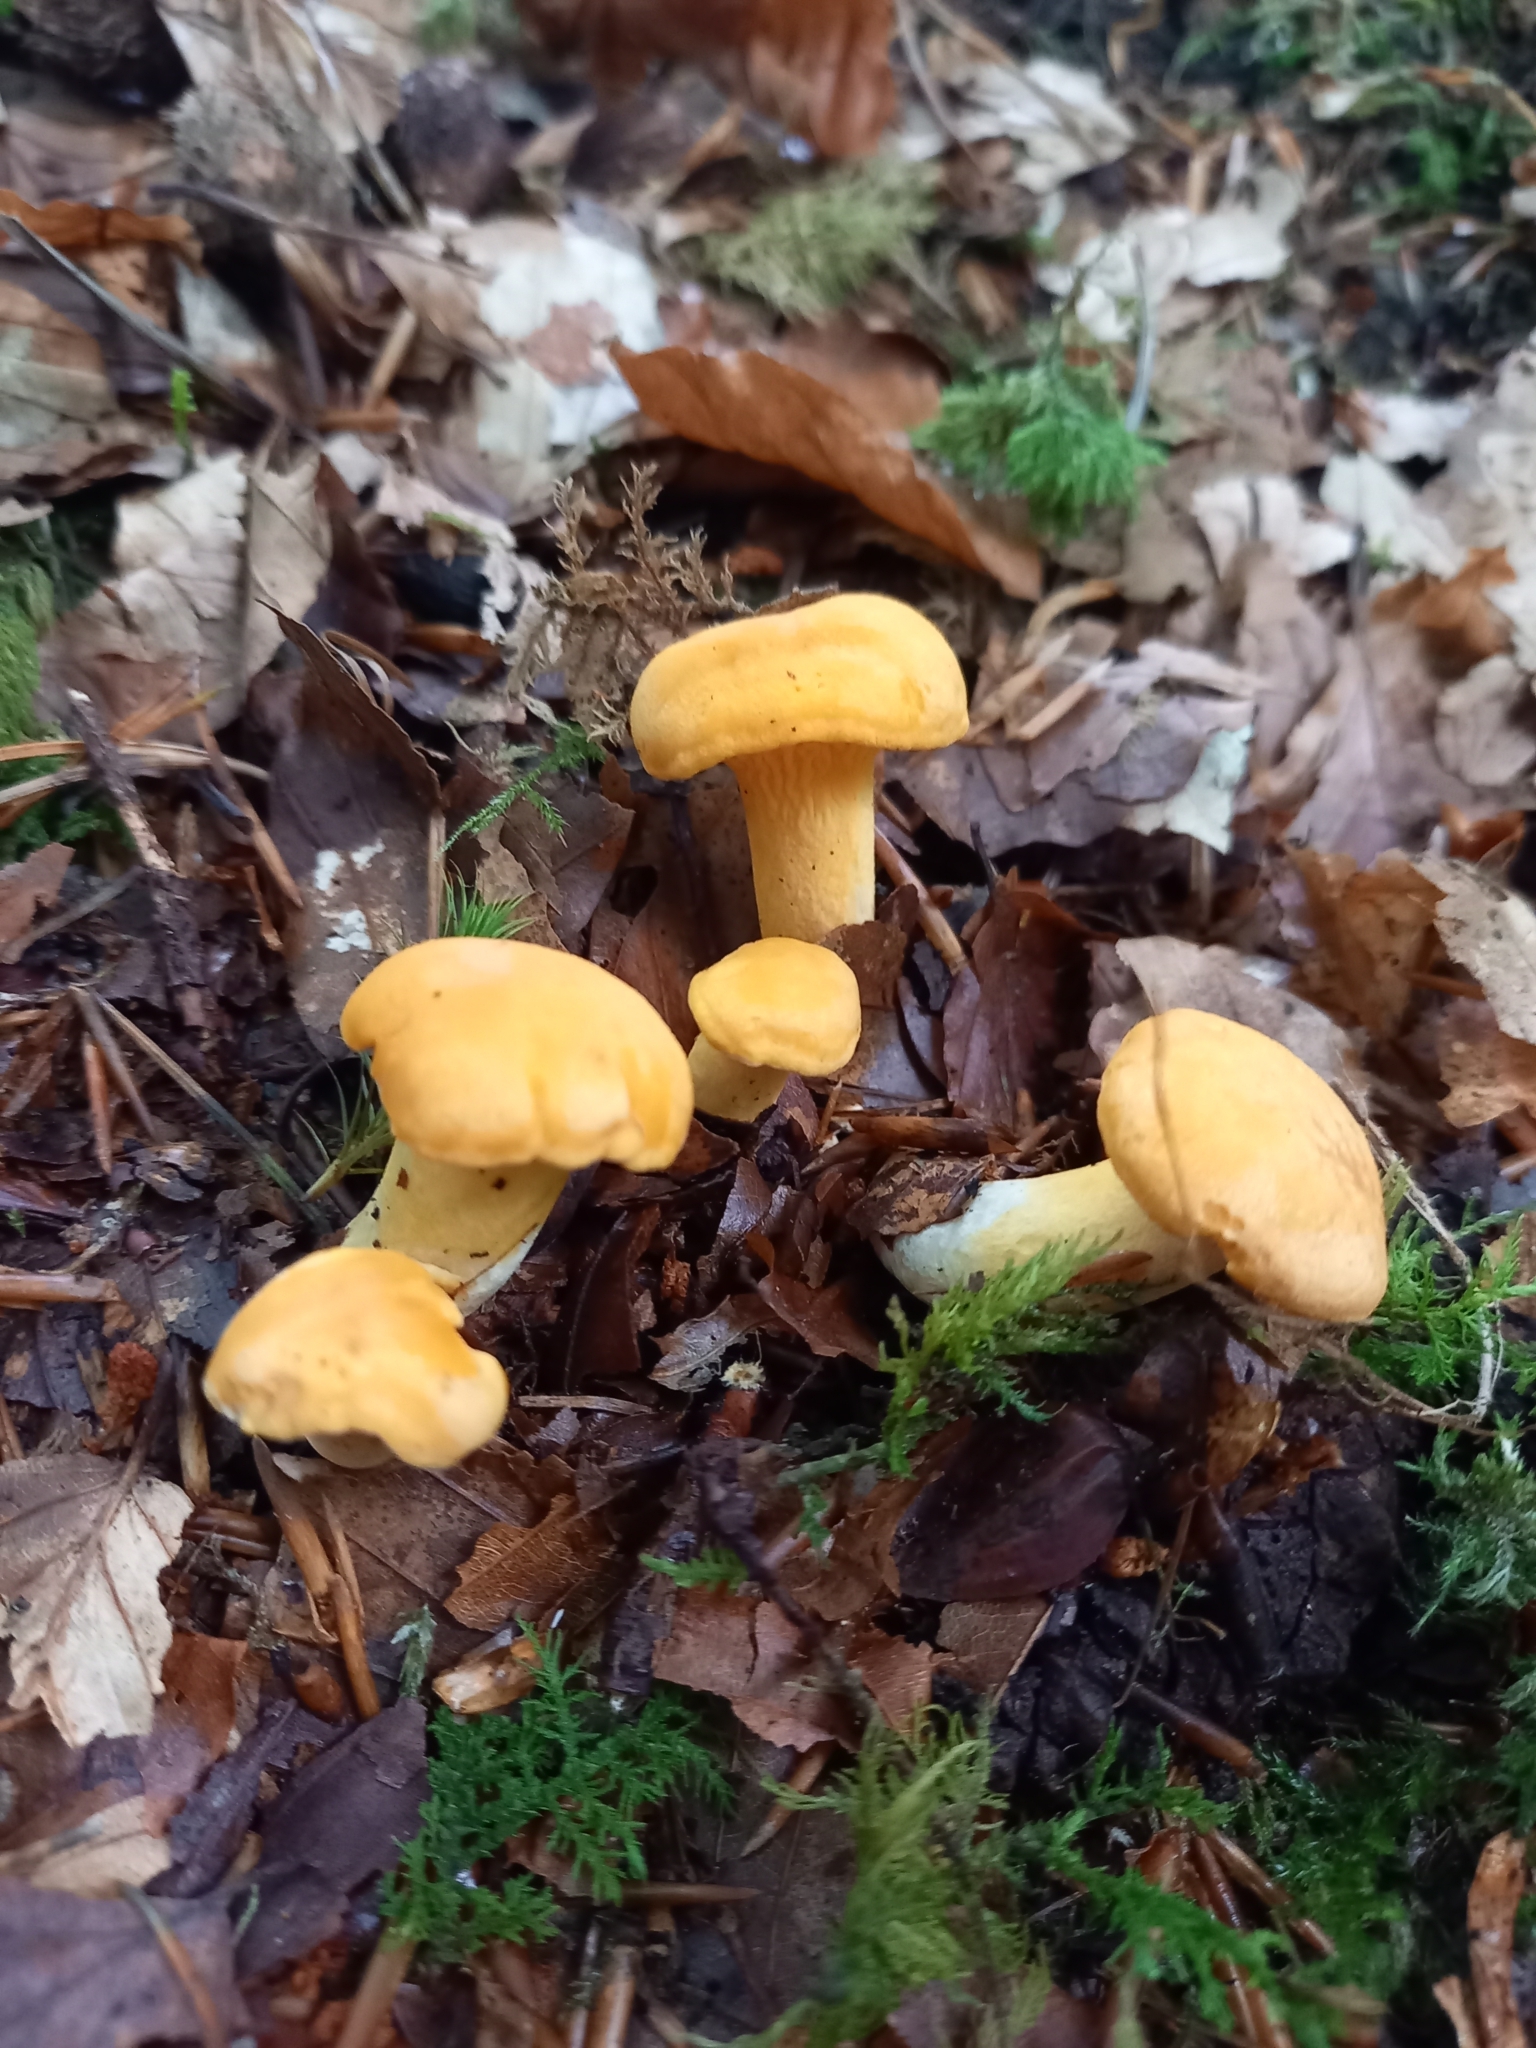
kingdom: Fungi
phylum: Basidiomycota
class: Agaricomycetes
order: Cantharellales
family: Hydnaceae
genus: Cantharellus
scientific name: Cantharellus cibarius
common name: Chanterelle
